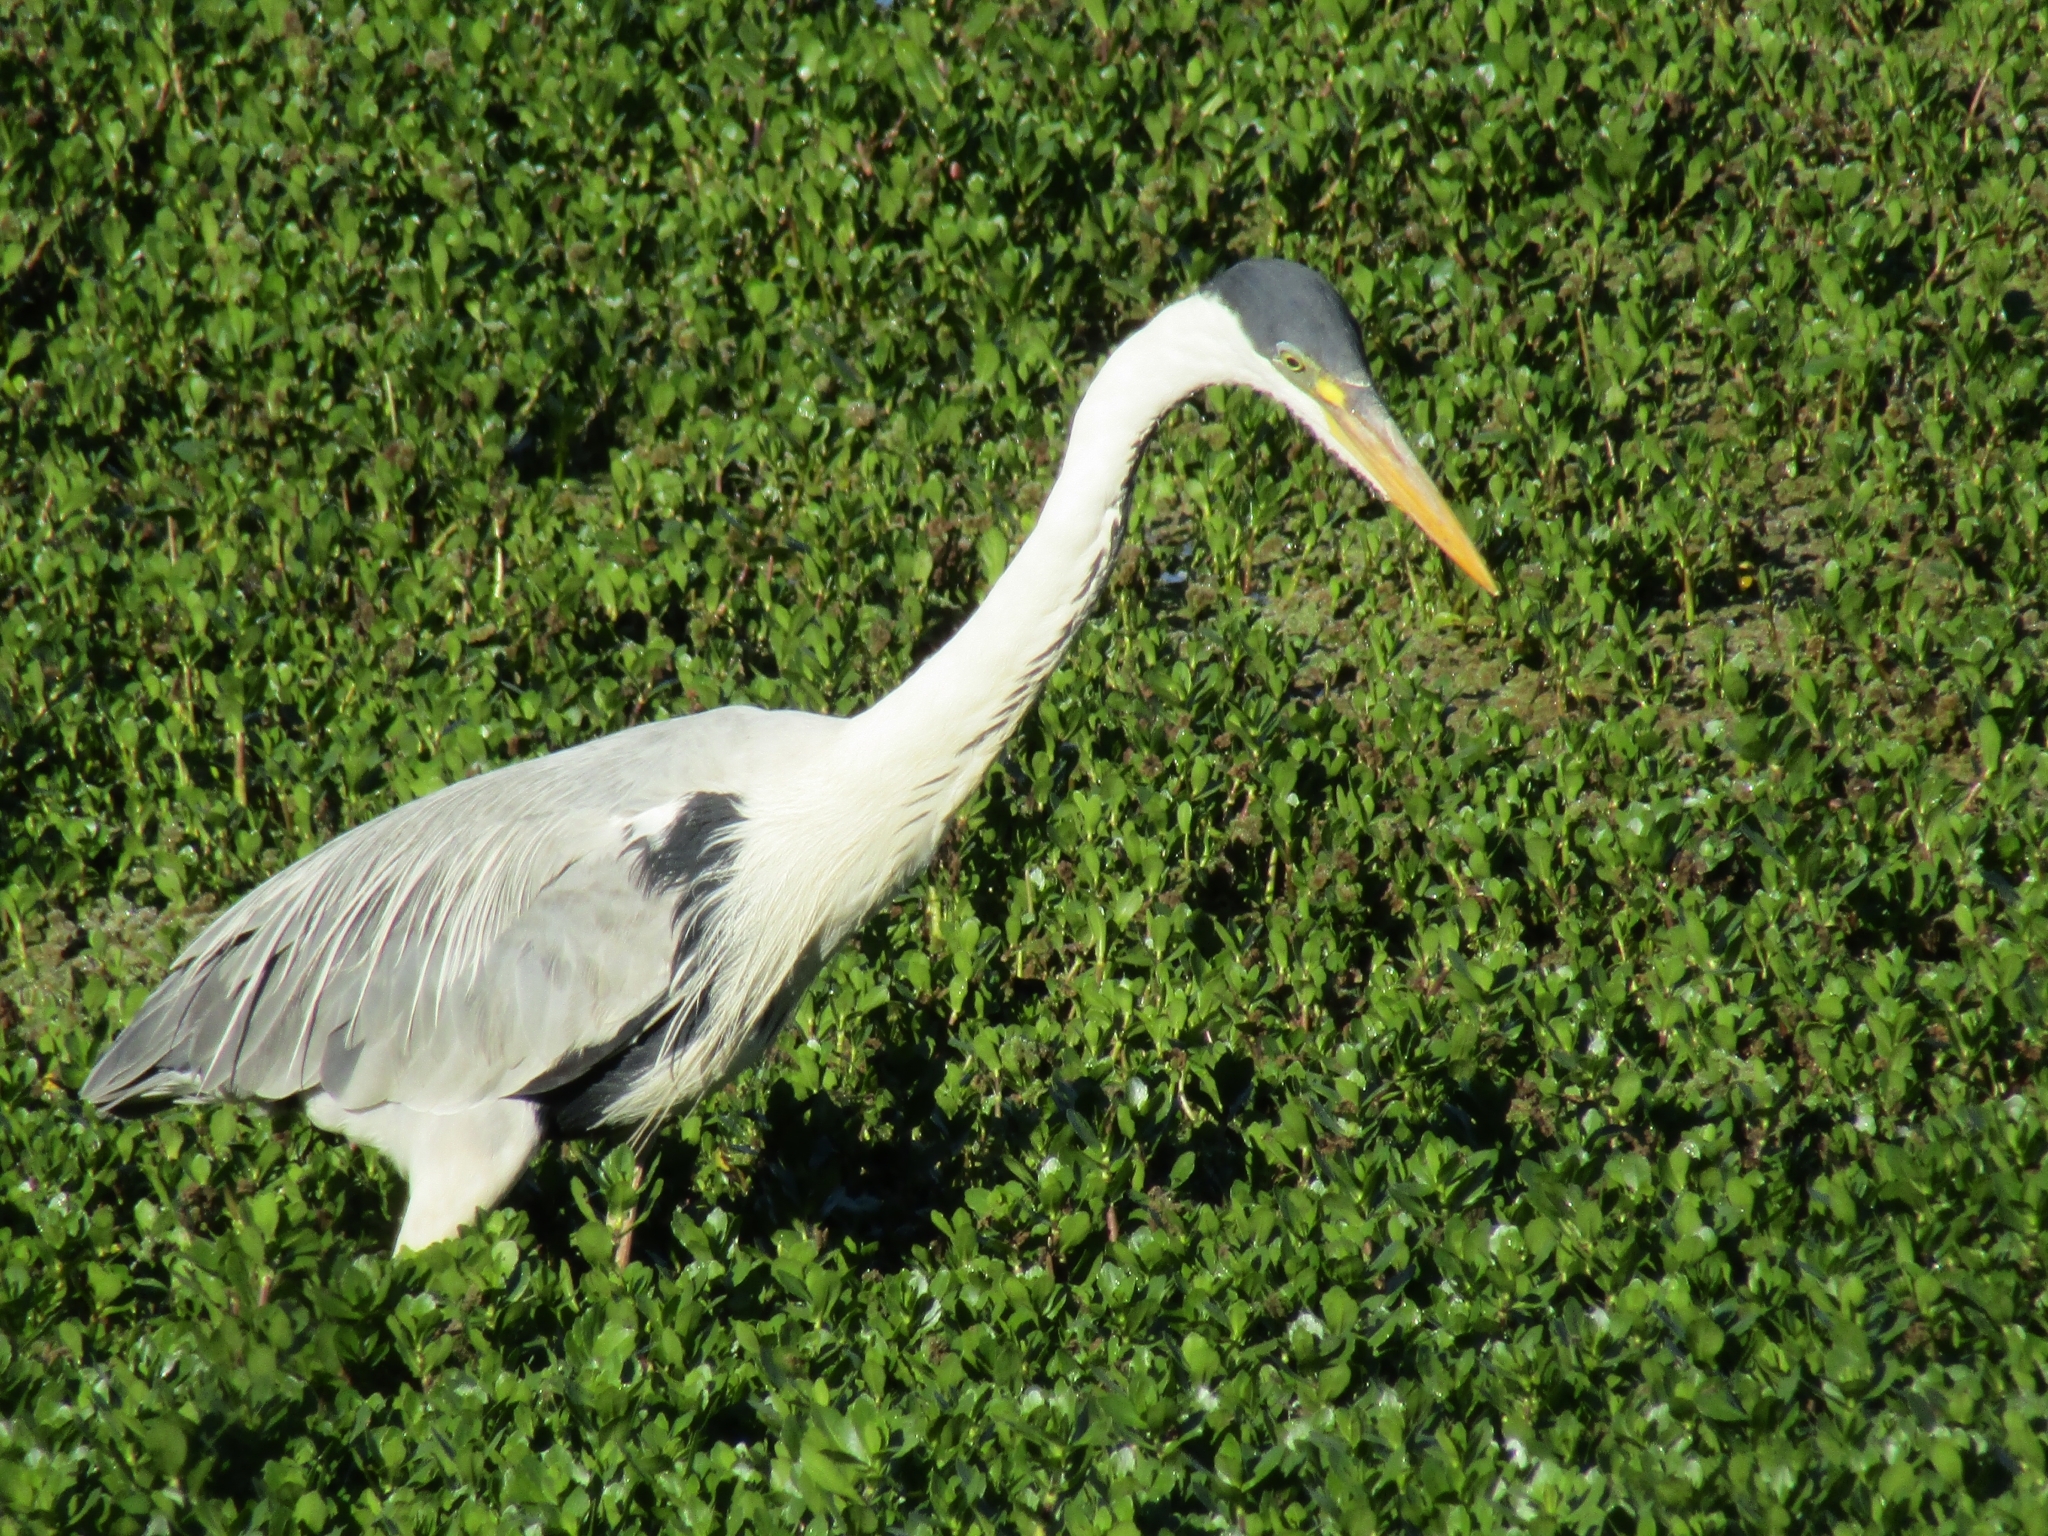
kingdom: Animalia
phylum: Chordata
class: Aves
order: Pelecaniformes
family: Ardeidae
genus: Ardea
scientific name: Ardea cocoi
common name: Cocoi heron
